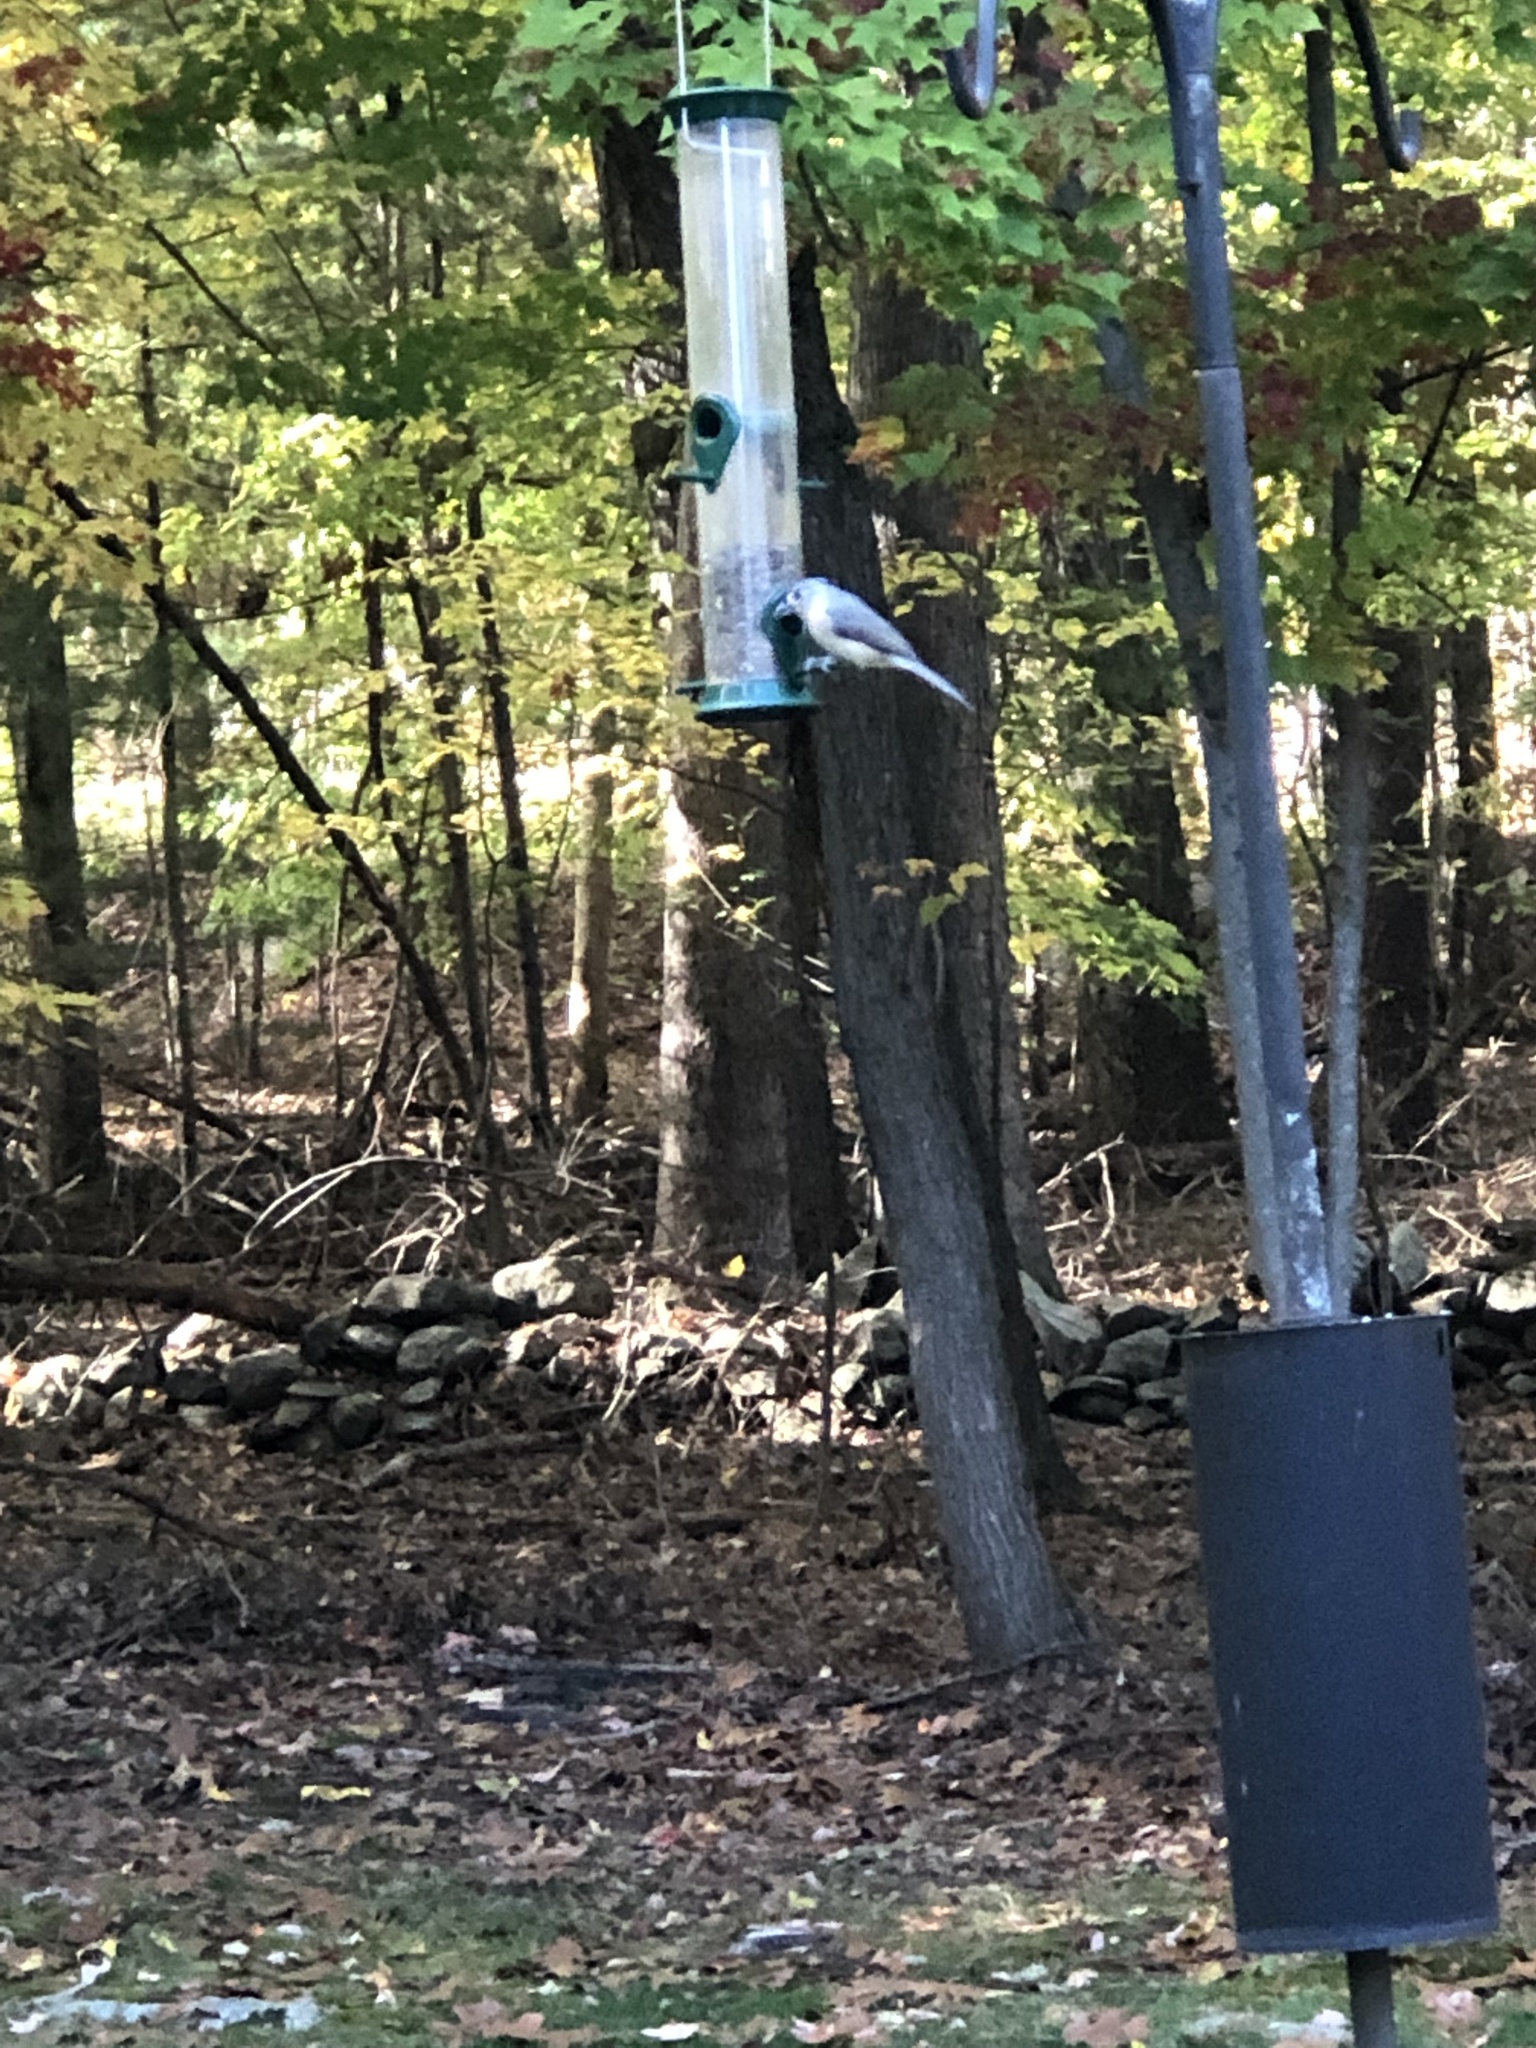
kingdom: Animalia
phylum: Chordata
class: Aves
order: Passeriformes
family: Paridae
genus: Baeolophus
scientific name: Baeolophus bicolor
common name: Tufted titmouse
